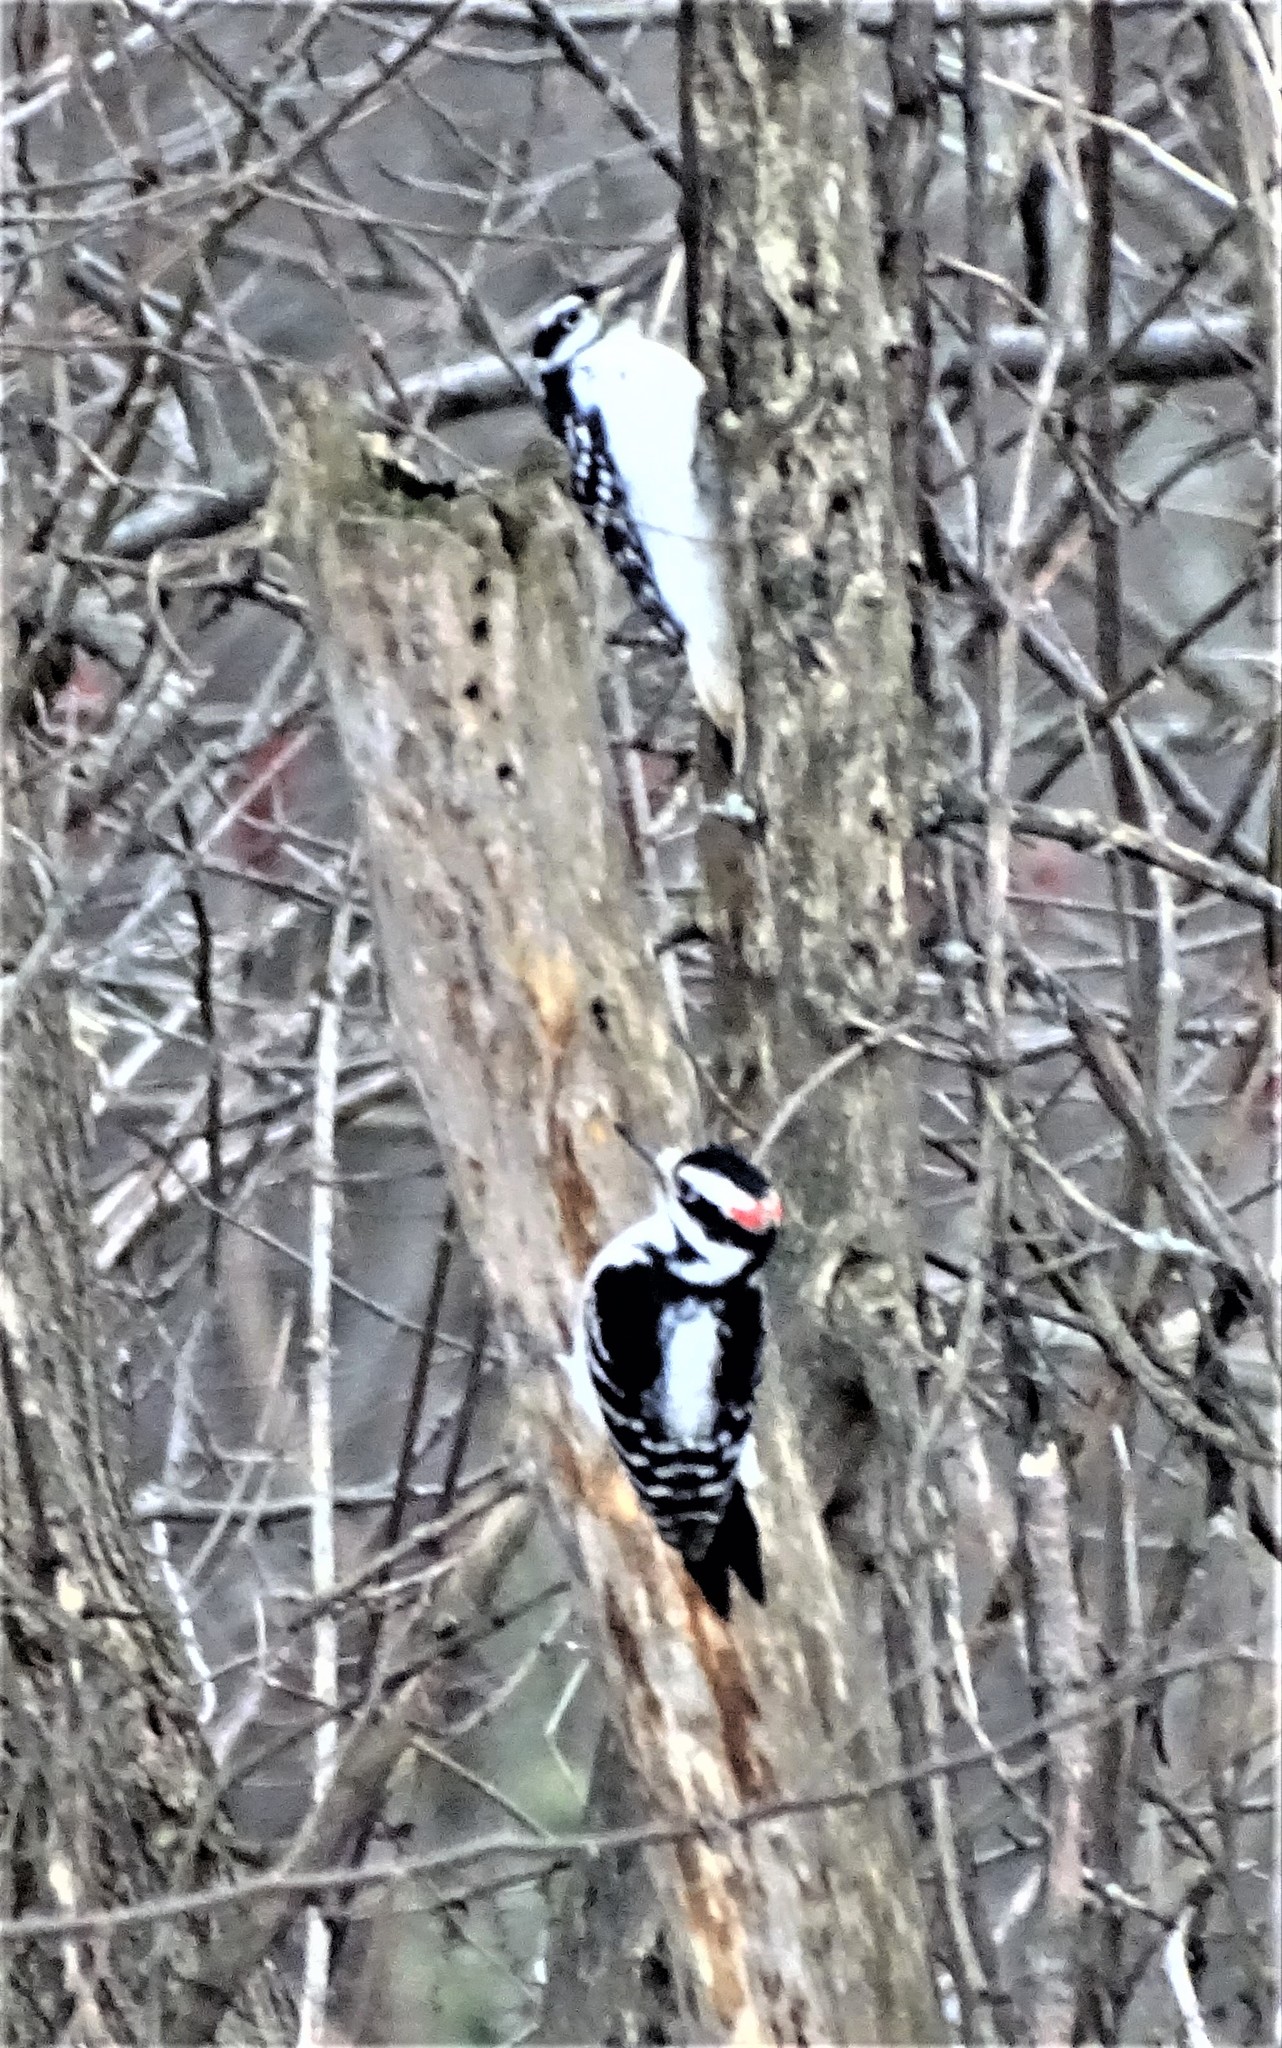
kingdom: Animalia
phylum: Chordata
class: Aves
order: Piciformes
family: Picidae
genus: Leuconotopicus
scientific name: Leuconotopicus villosus
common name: Hairy woodpecker
